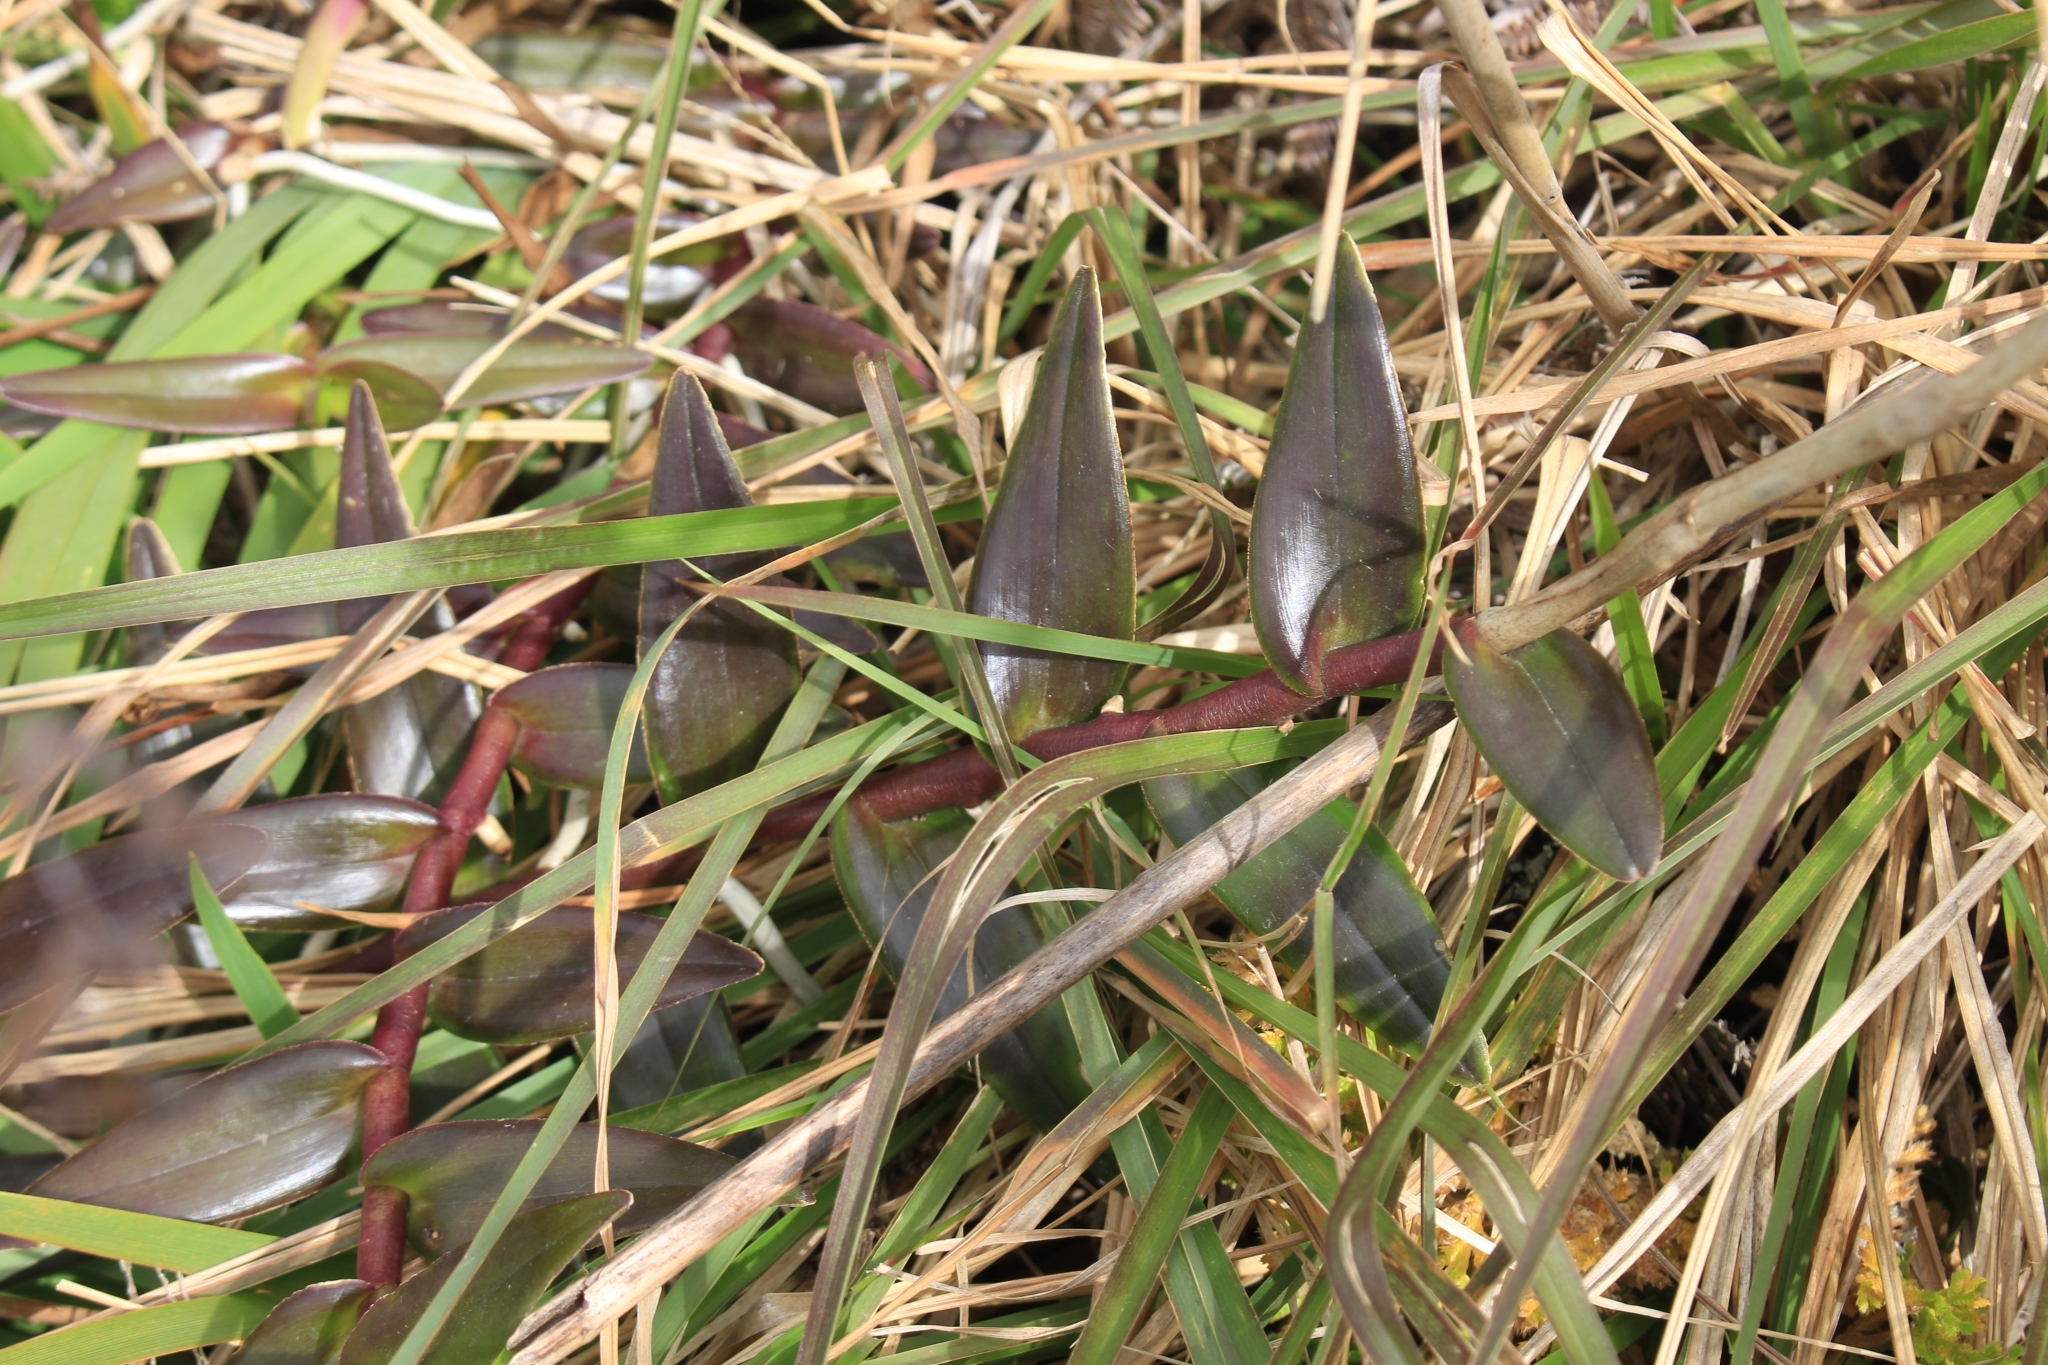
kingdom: Plantae
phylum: Tracheophyta
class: Liliopsida
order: Asparagales
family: Orchidaceae
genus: Epidendrum
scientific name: Epidendrum radicans
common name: Fire star orchid
